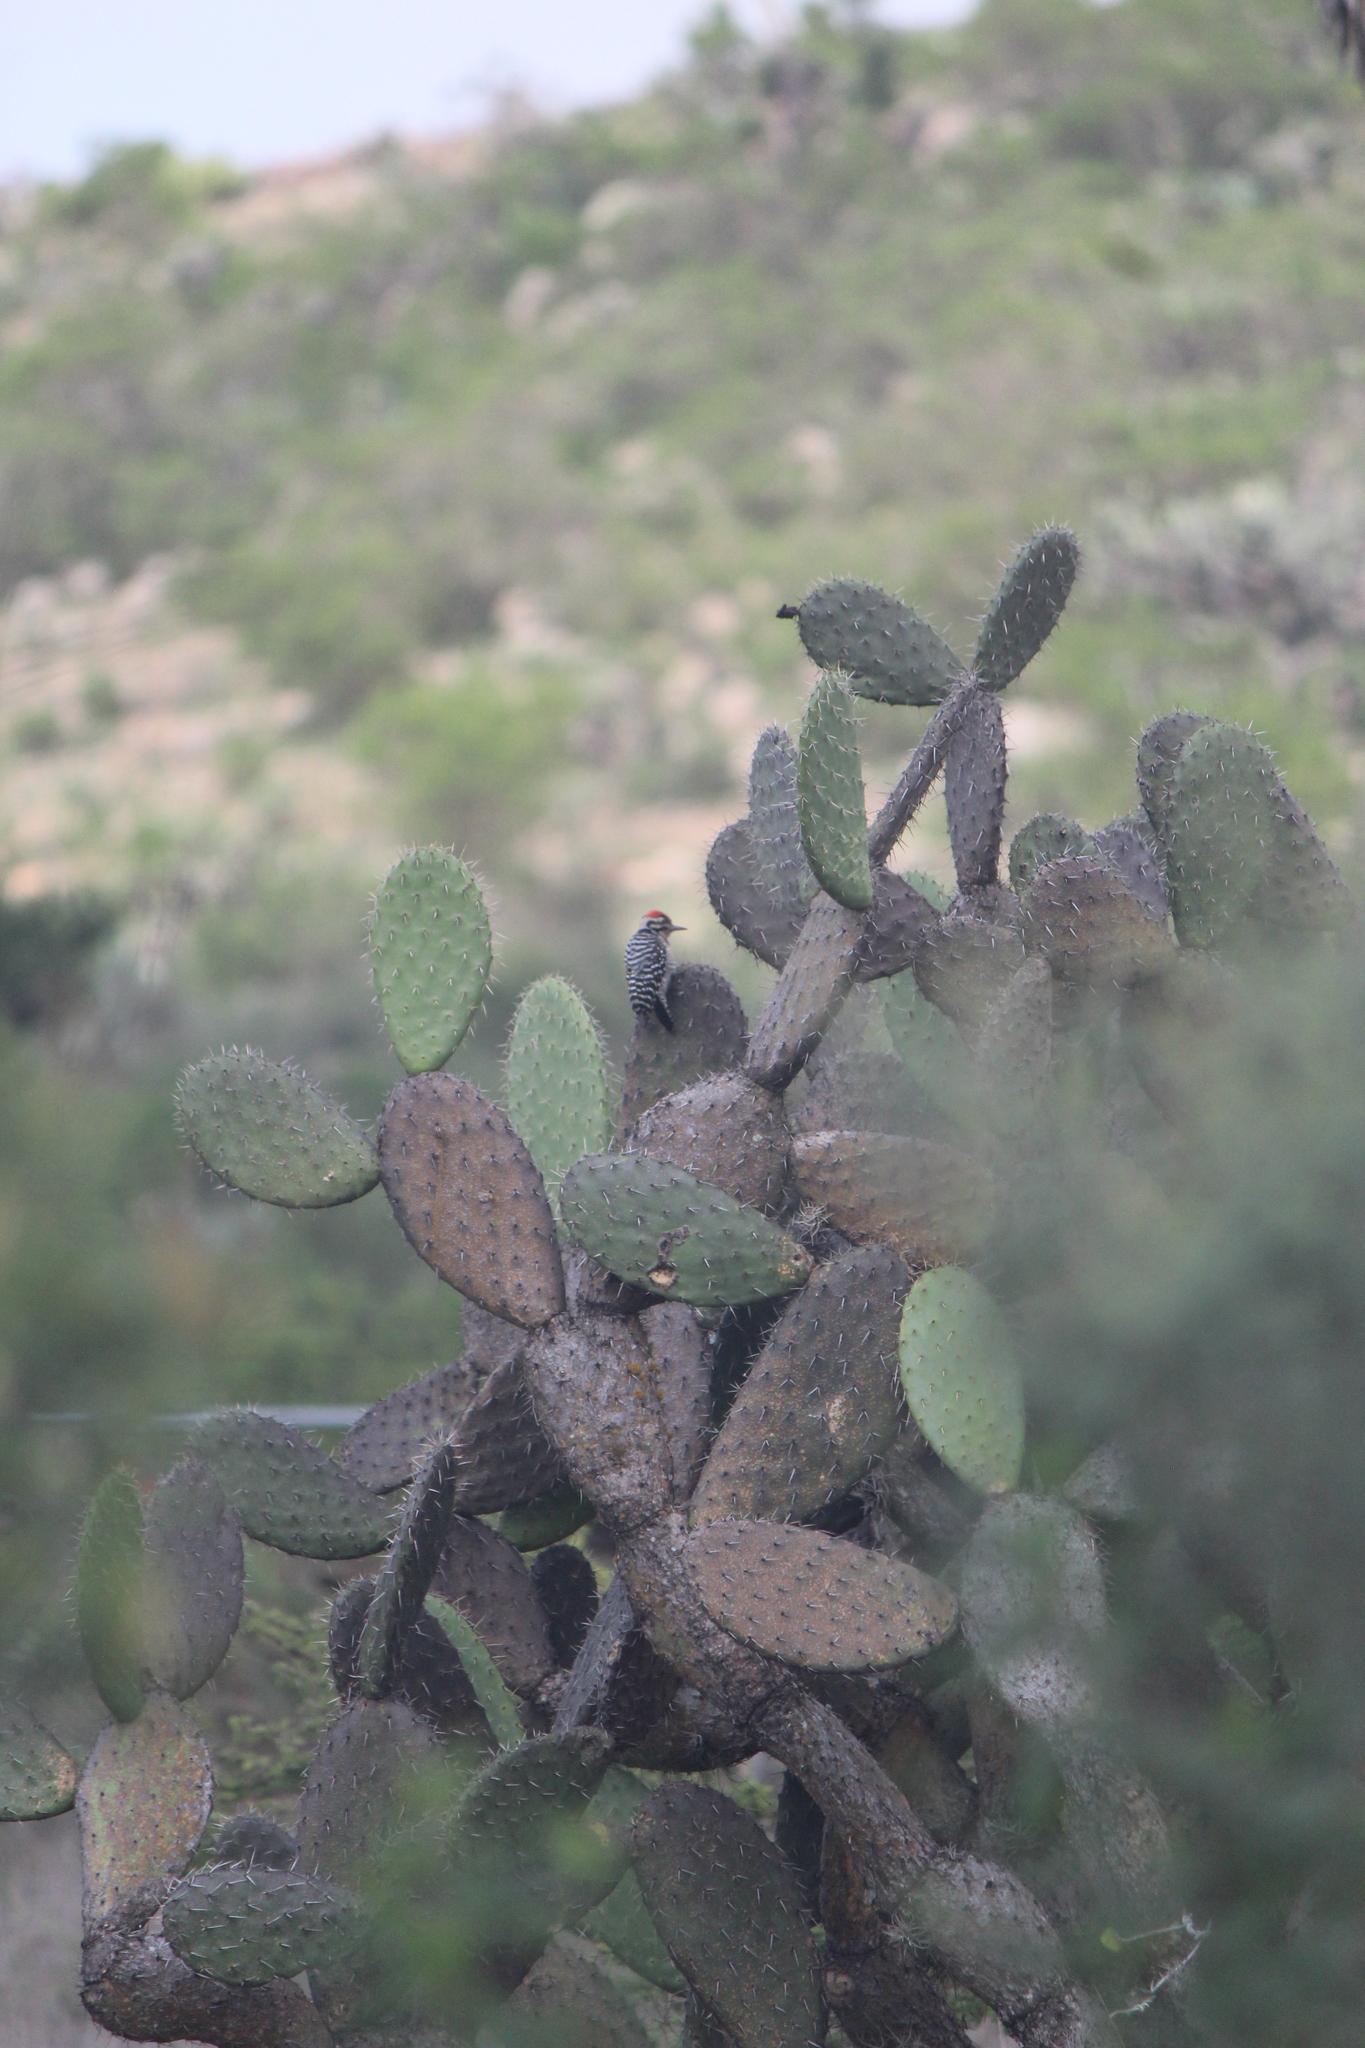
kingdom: Animalia
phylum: Chordata
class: Aves
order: Piciformes
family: Picidae
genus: Dryobates
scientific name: Dryobates scalaris
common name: Ladder-backed woodpecker
